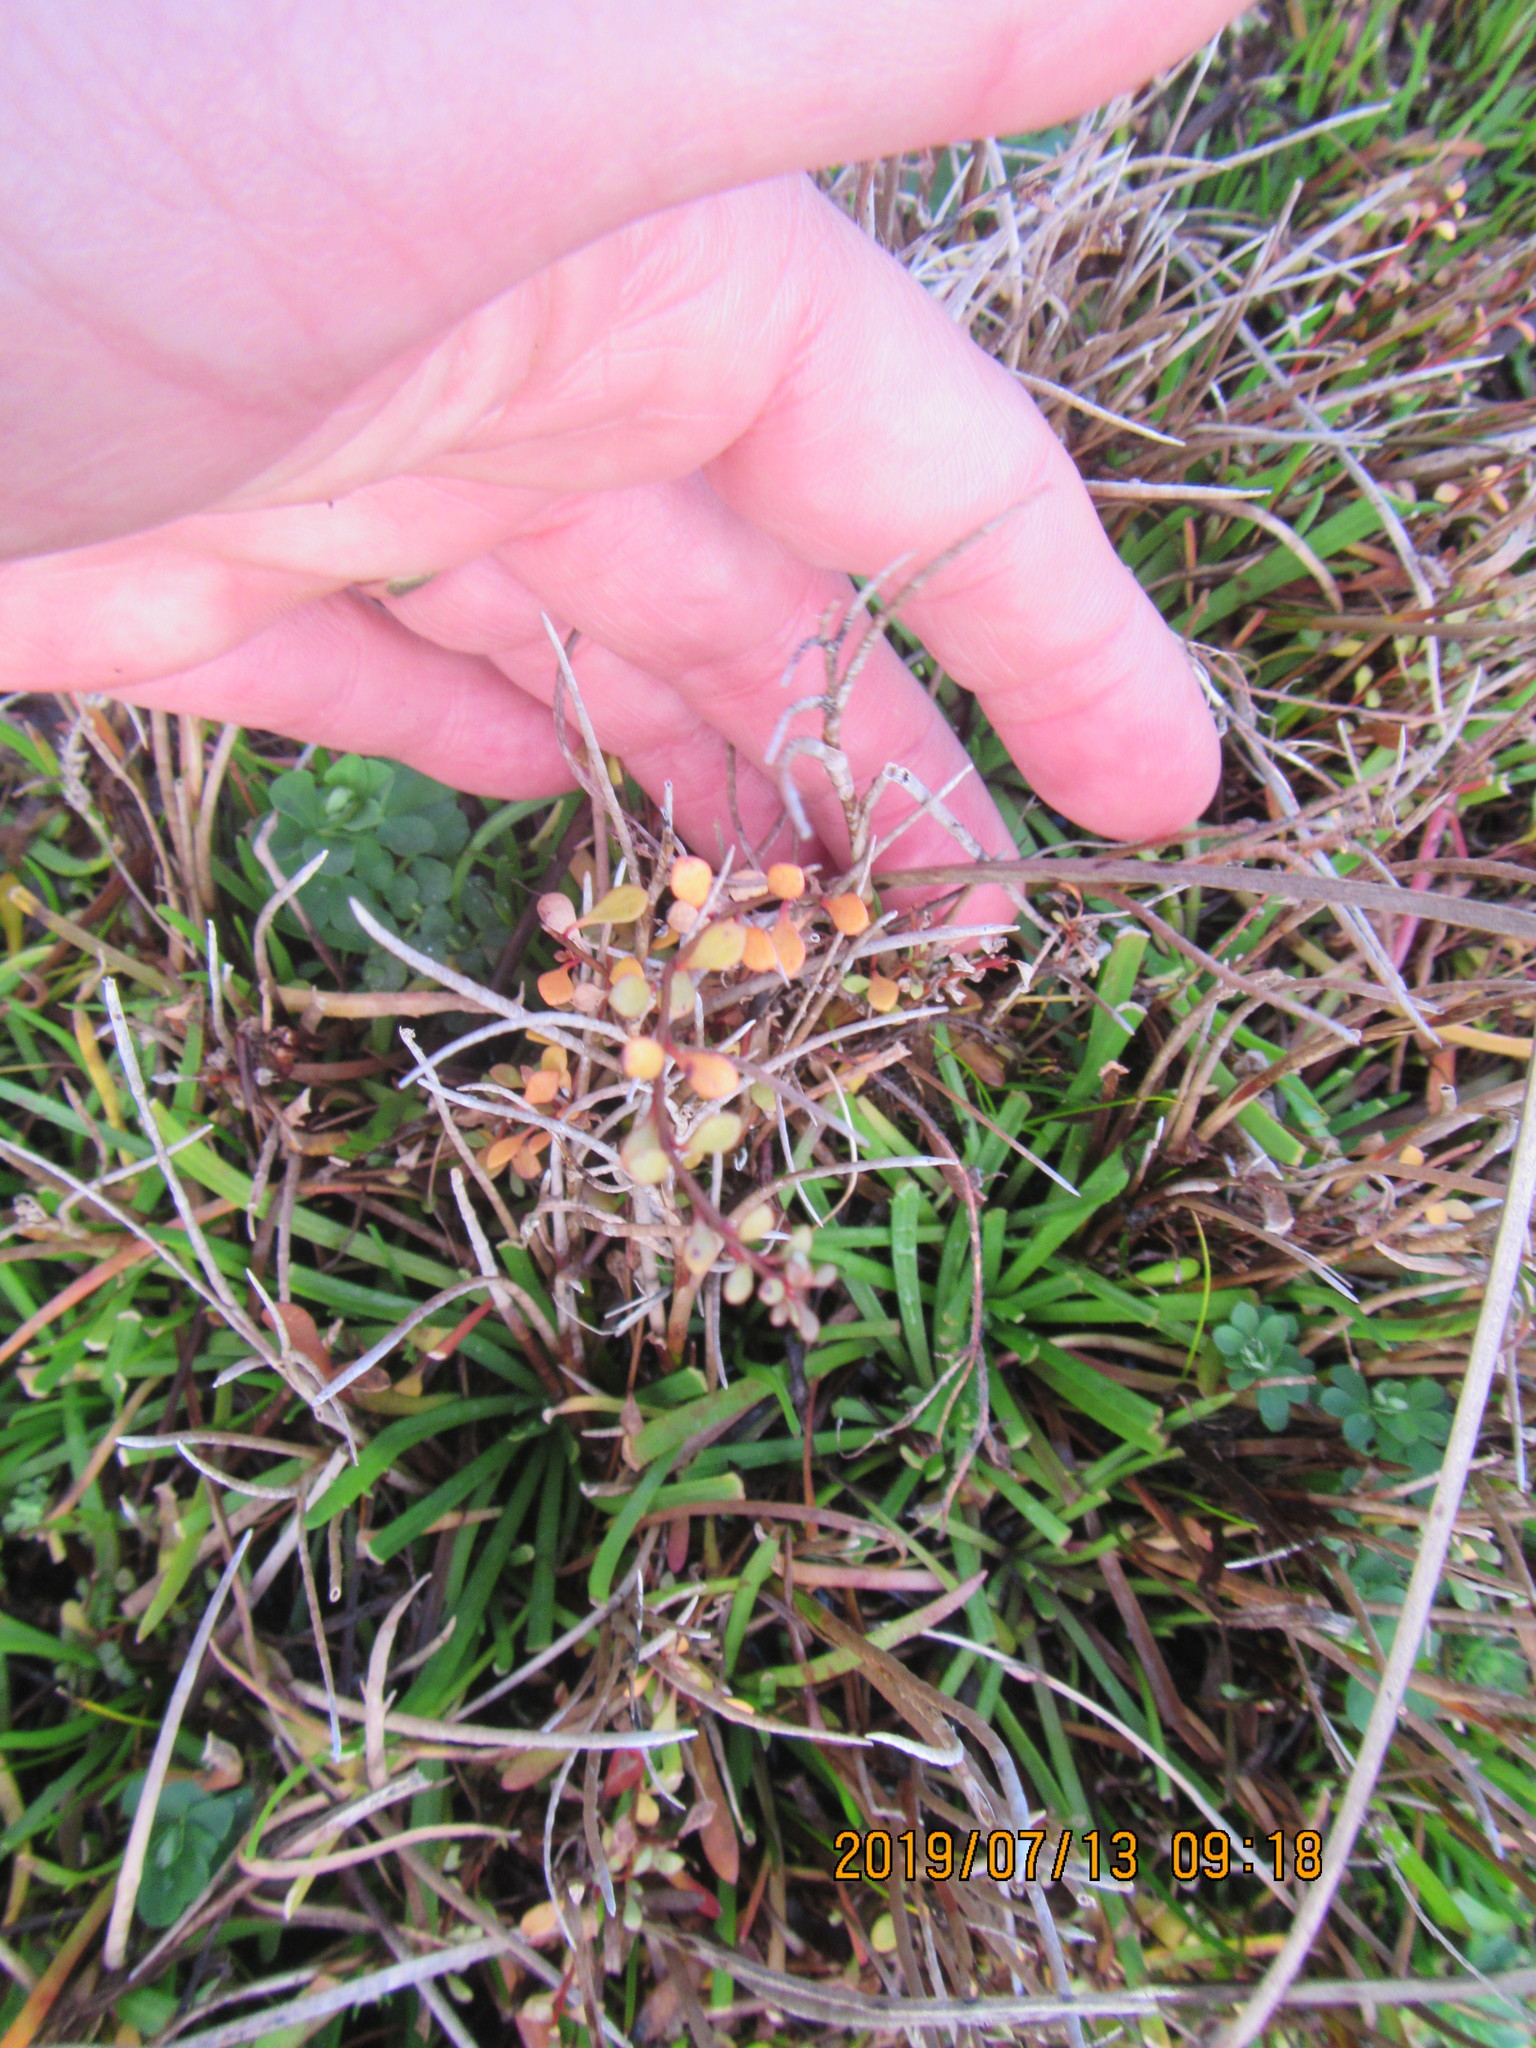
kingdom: Plantae
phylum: Tracheophyta
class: Magnoliopsida
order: Ericales
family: Primulaceae
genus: Samolus
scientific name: Samolus repens
